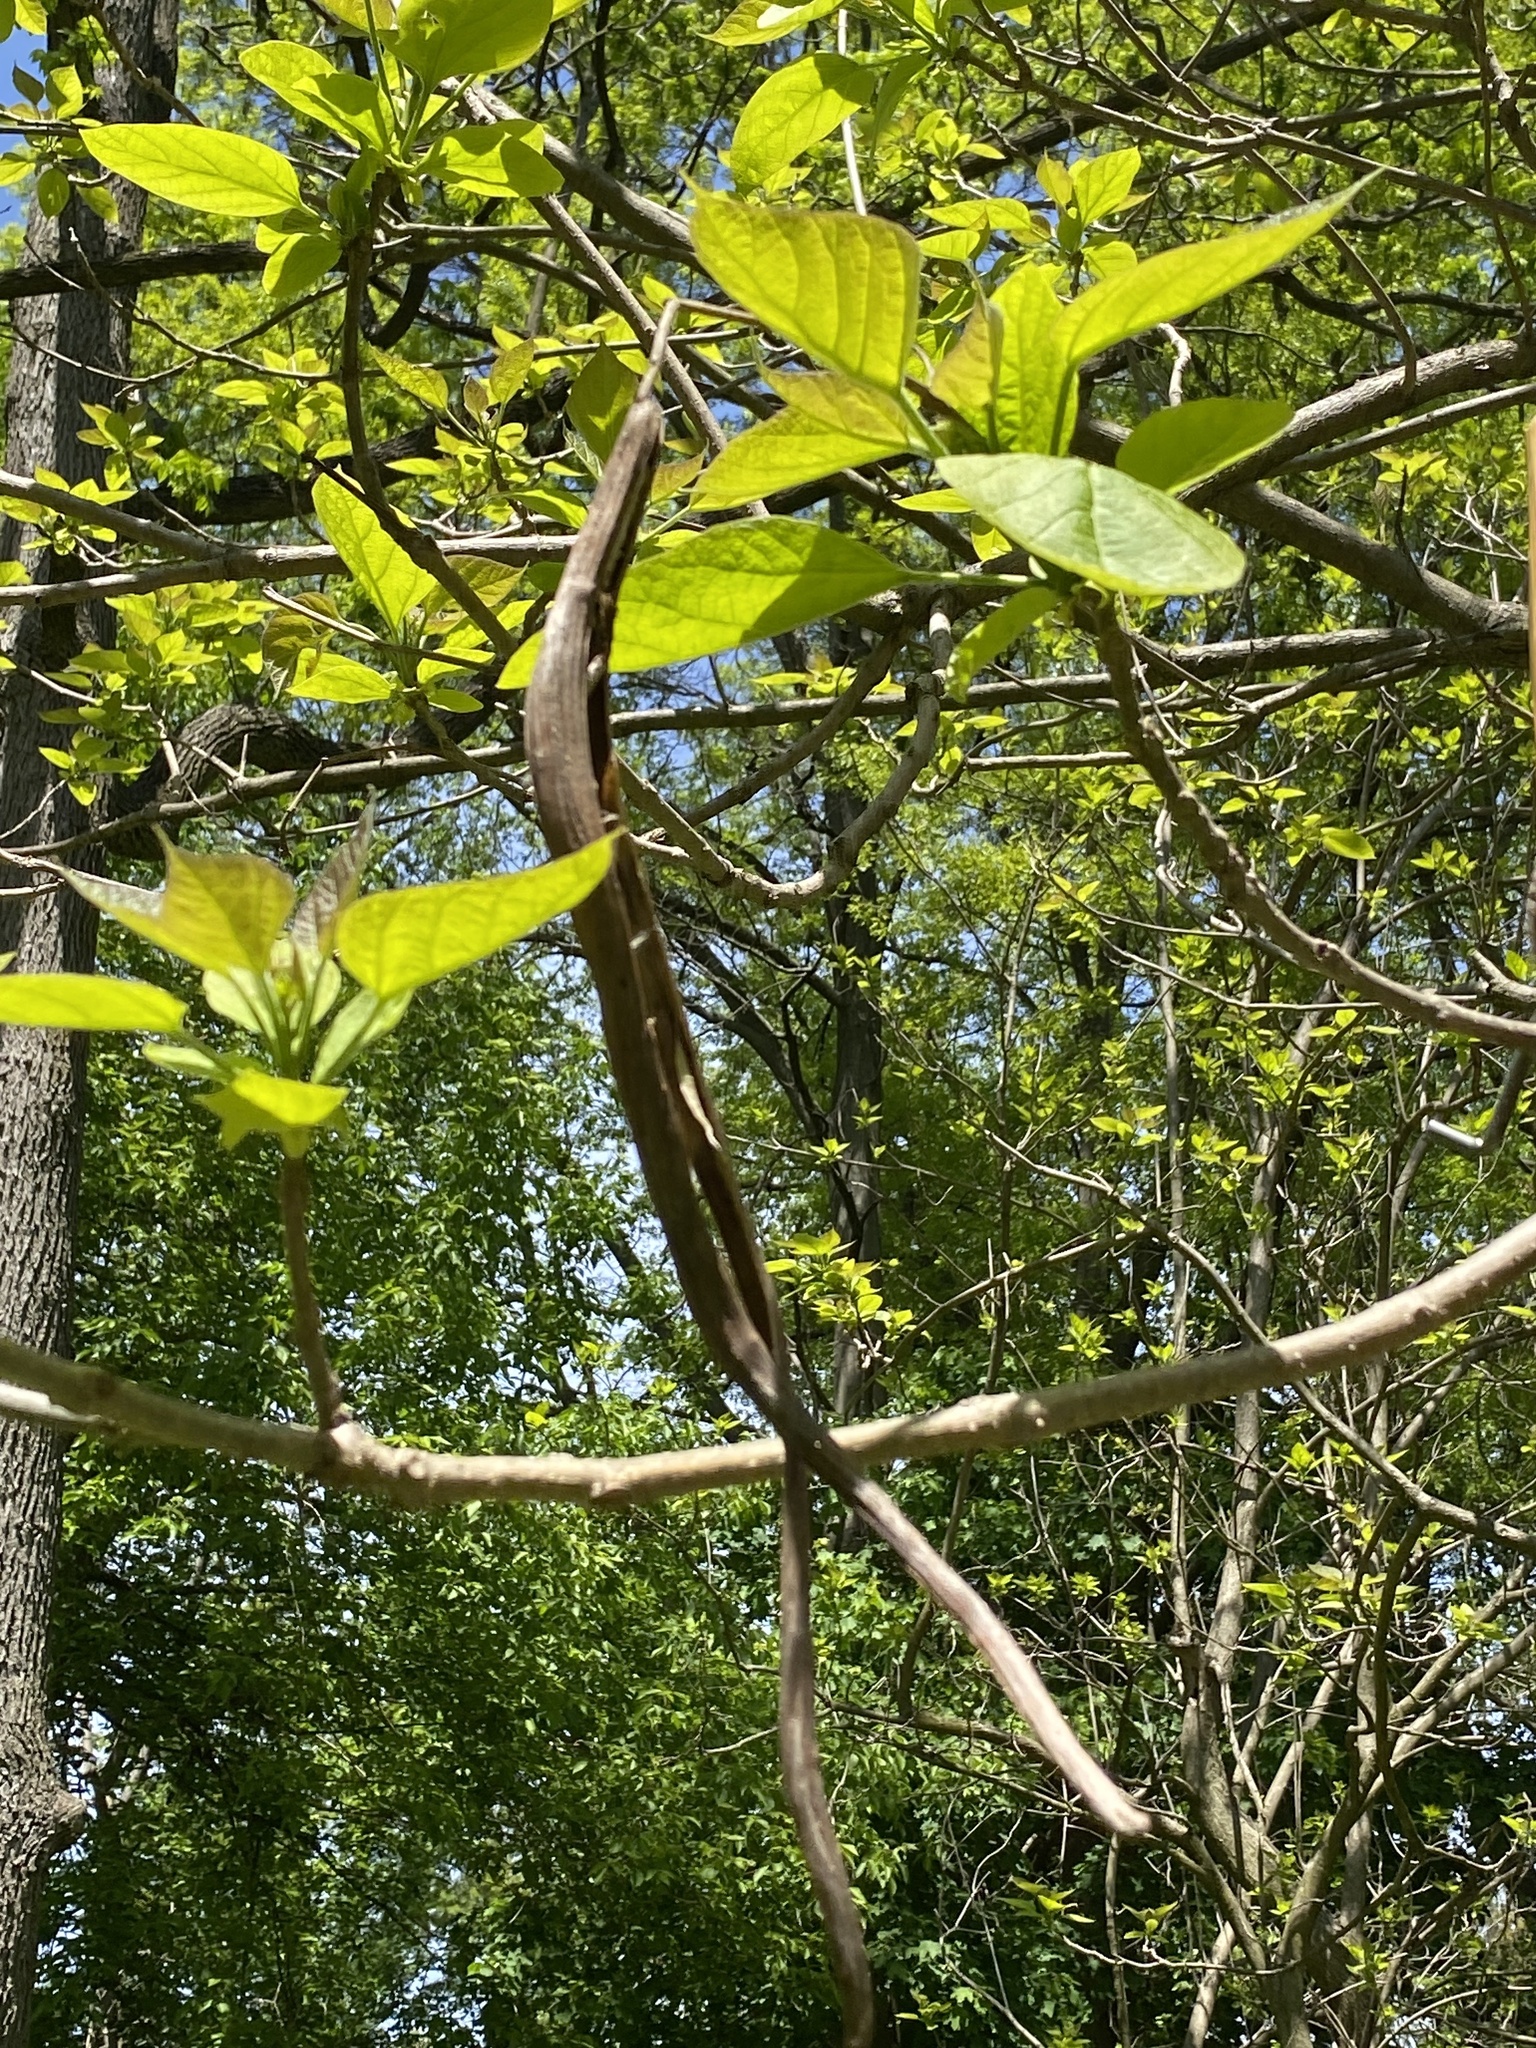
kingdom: Plantae
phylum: Tracheophyta
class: Magnoliopsida
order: Lamiales
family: Bignoniaceae
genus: Catalpa
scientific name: Catalpa bignonioides
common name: Southern catalpa
